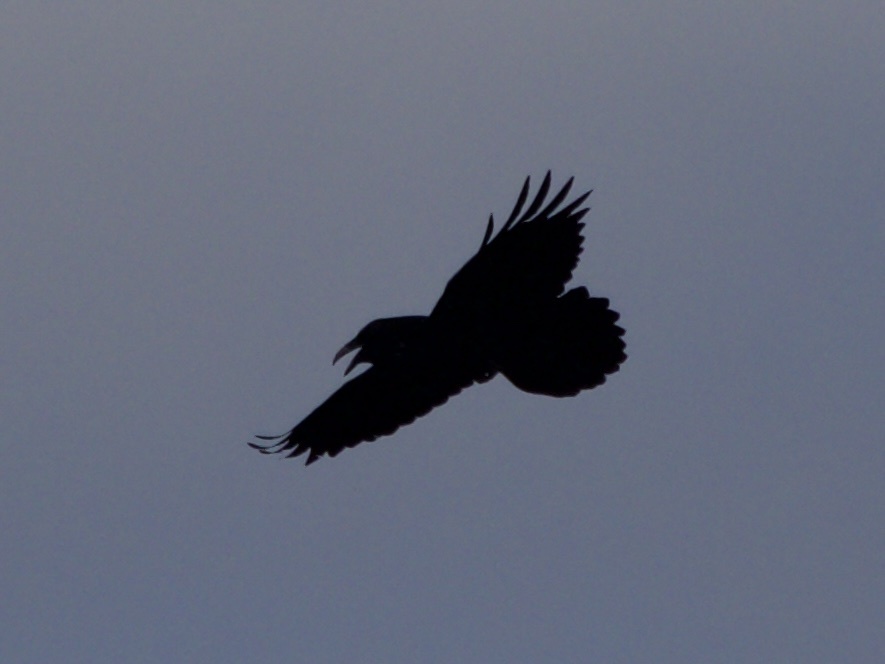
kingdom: Animalia
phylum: Chordata
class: Aves
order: Passeriformes
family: Corvidae
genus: Corvus
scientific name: Corvus corax
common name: Common raven
